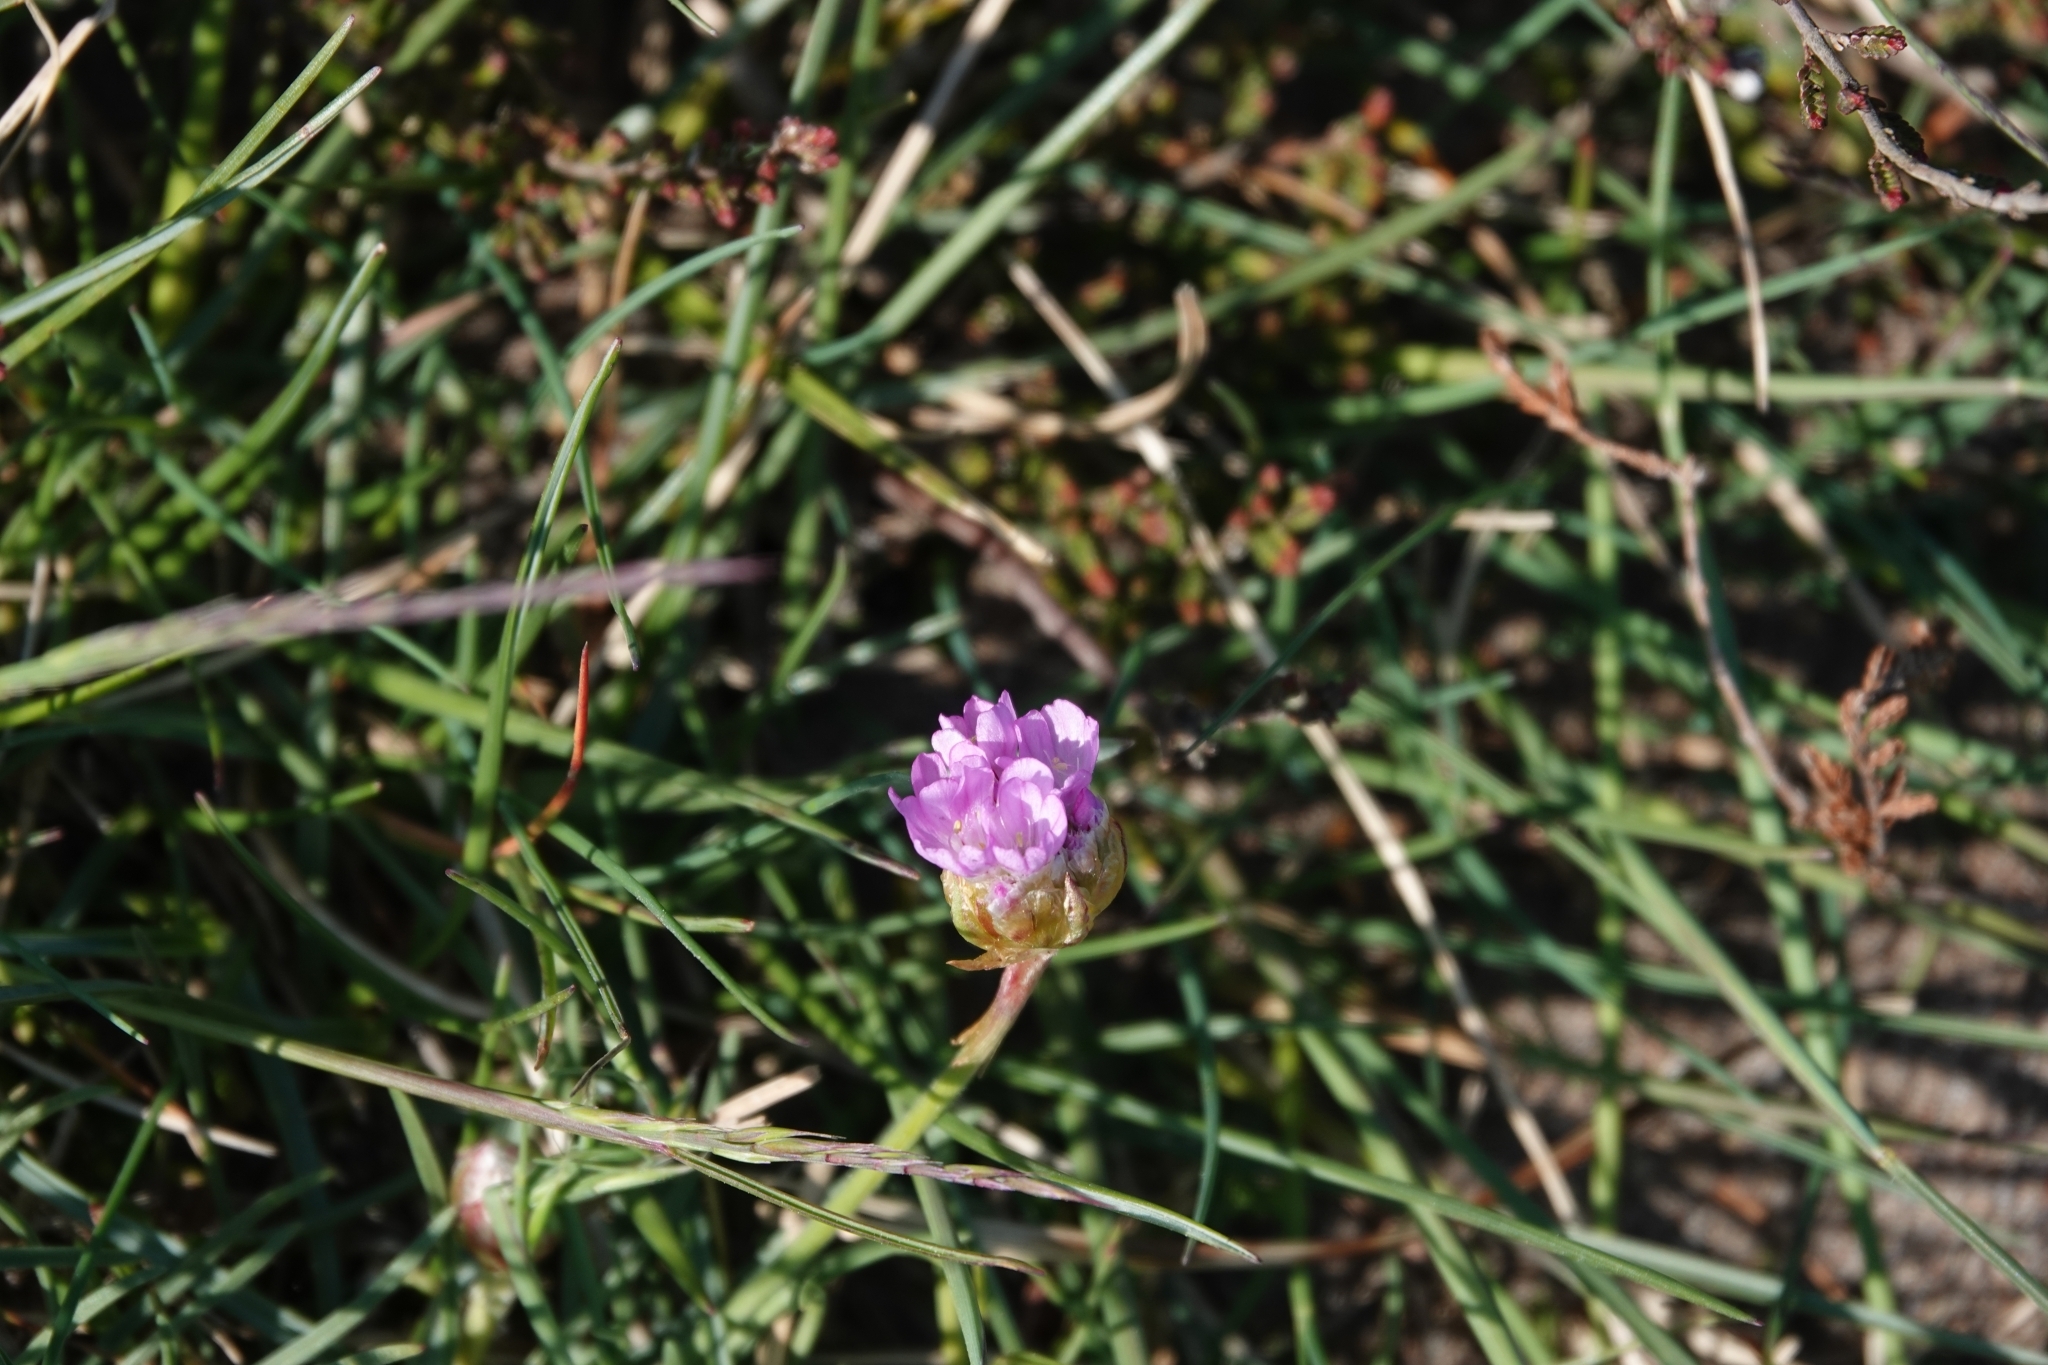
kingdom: Plantae
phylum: Tracheophyta
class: Magnoliopsida
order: Caryophyllales
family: Plumbaginaceae
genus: Armeria
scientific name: Armeria maritima
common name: Thrift
